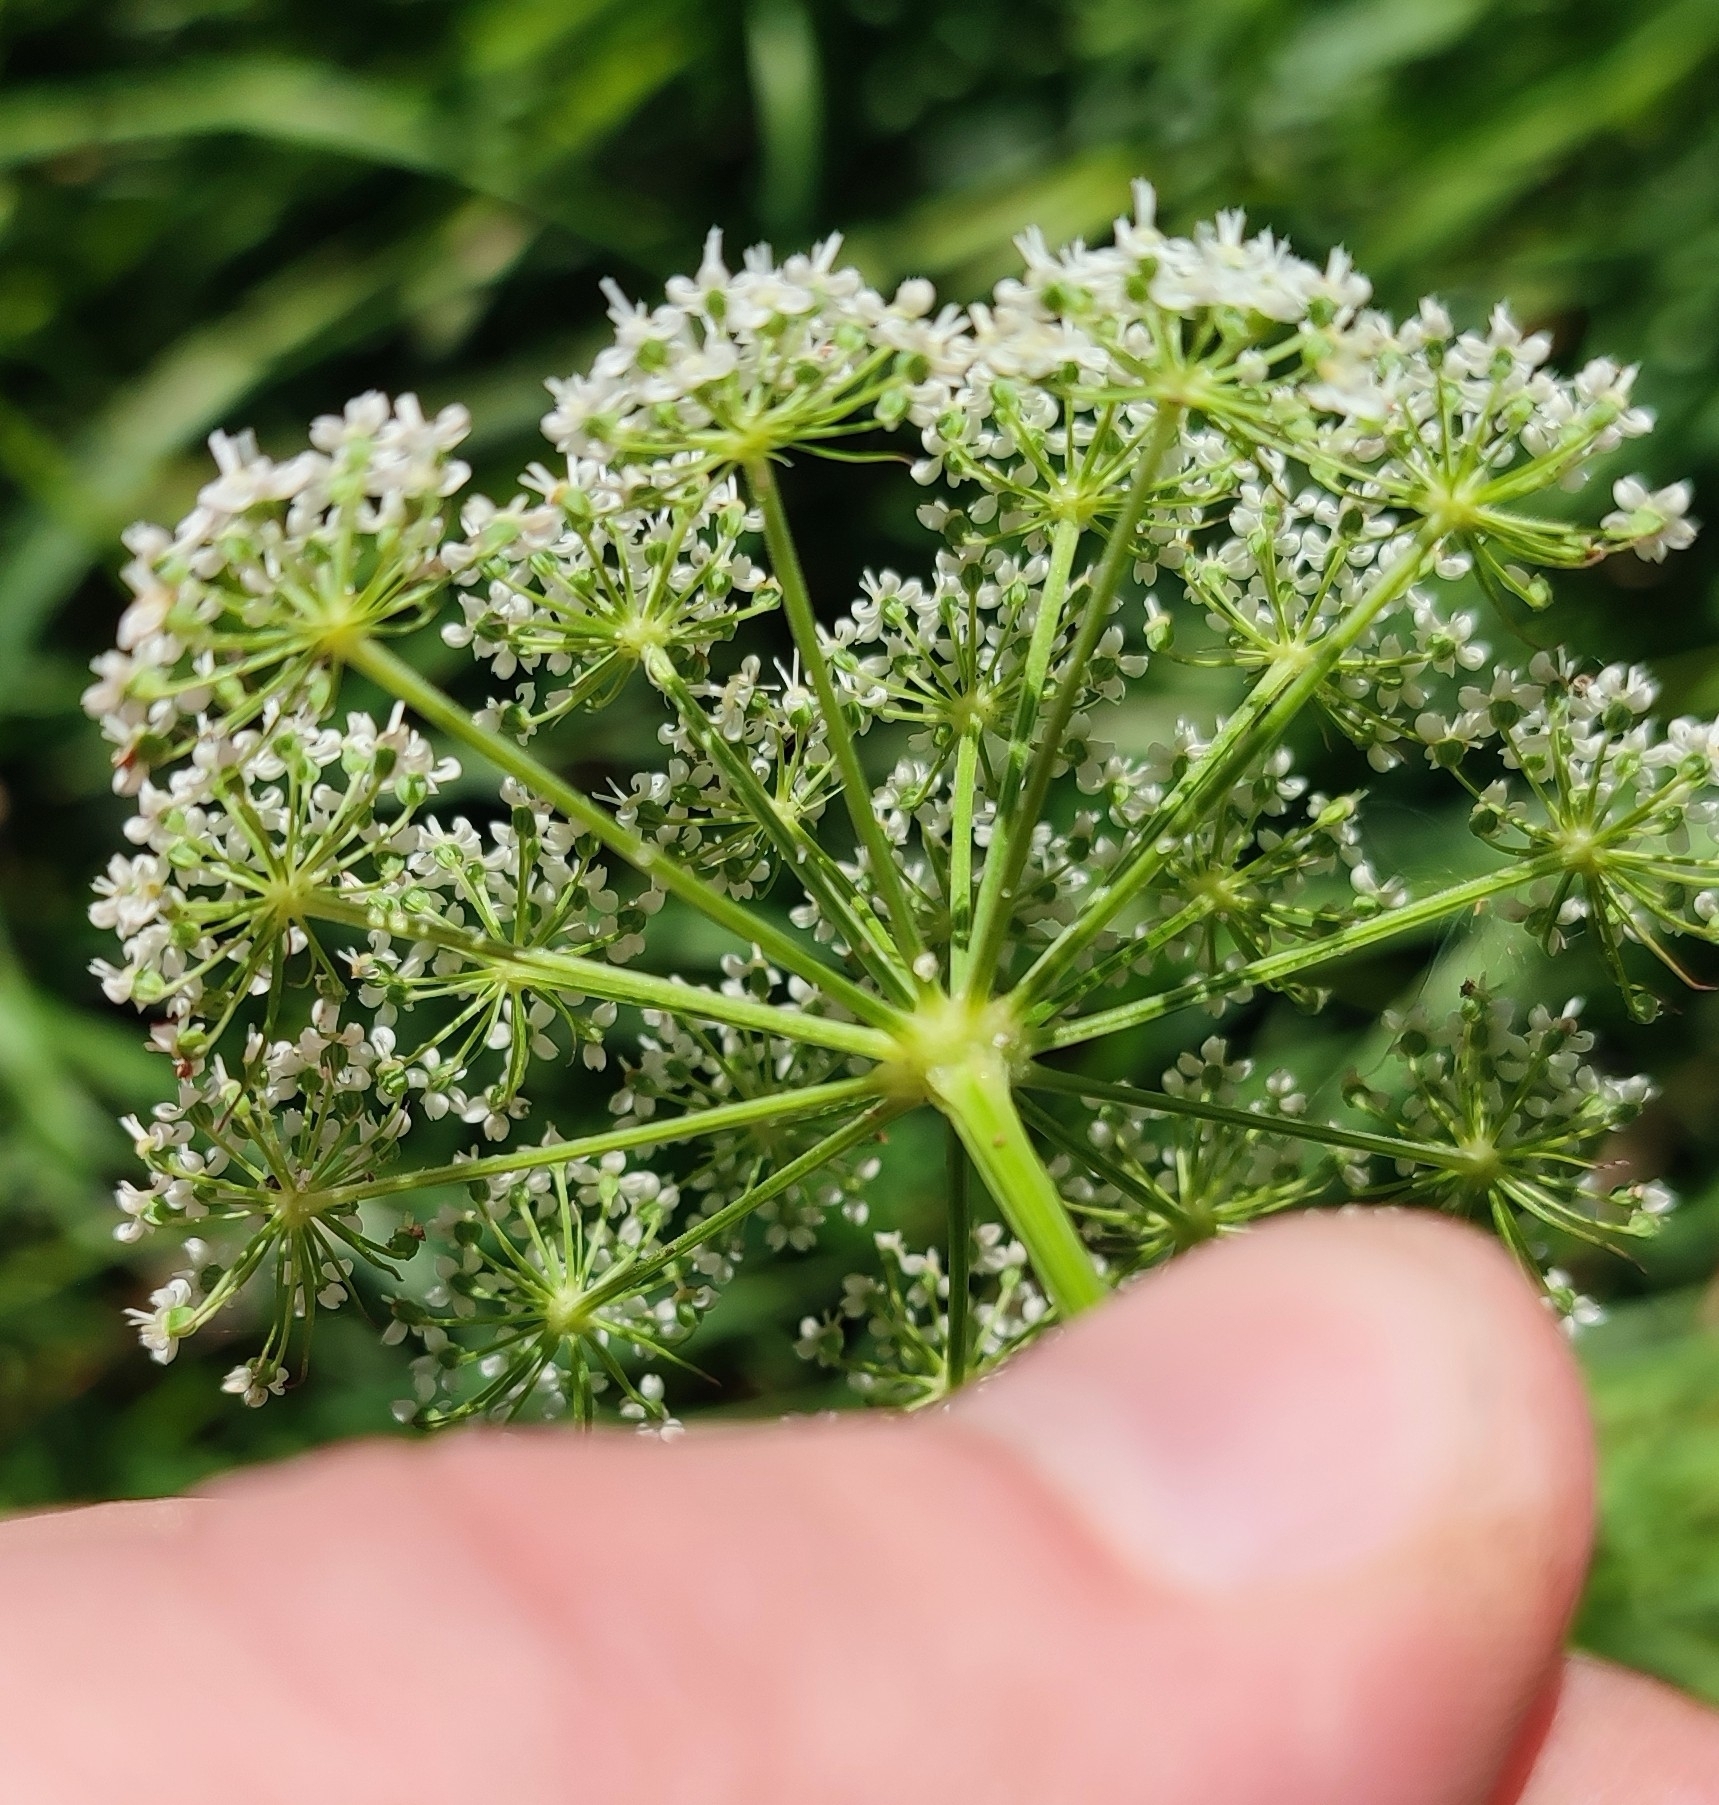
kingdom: Plantae
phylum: Tracheophyta
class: Magnoliopsida
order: Apiales
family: Apiaceae
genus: Kadenia
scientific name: Kadenia dubia
